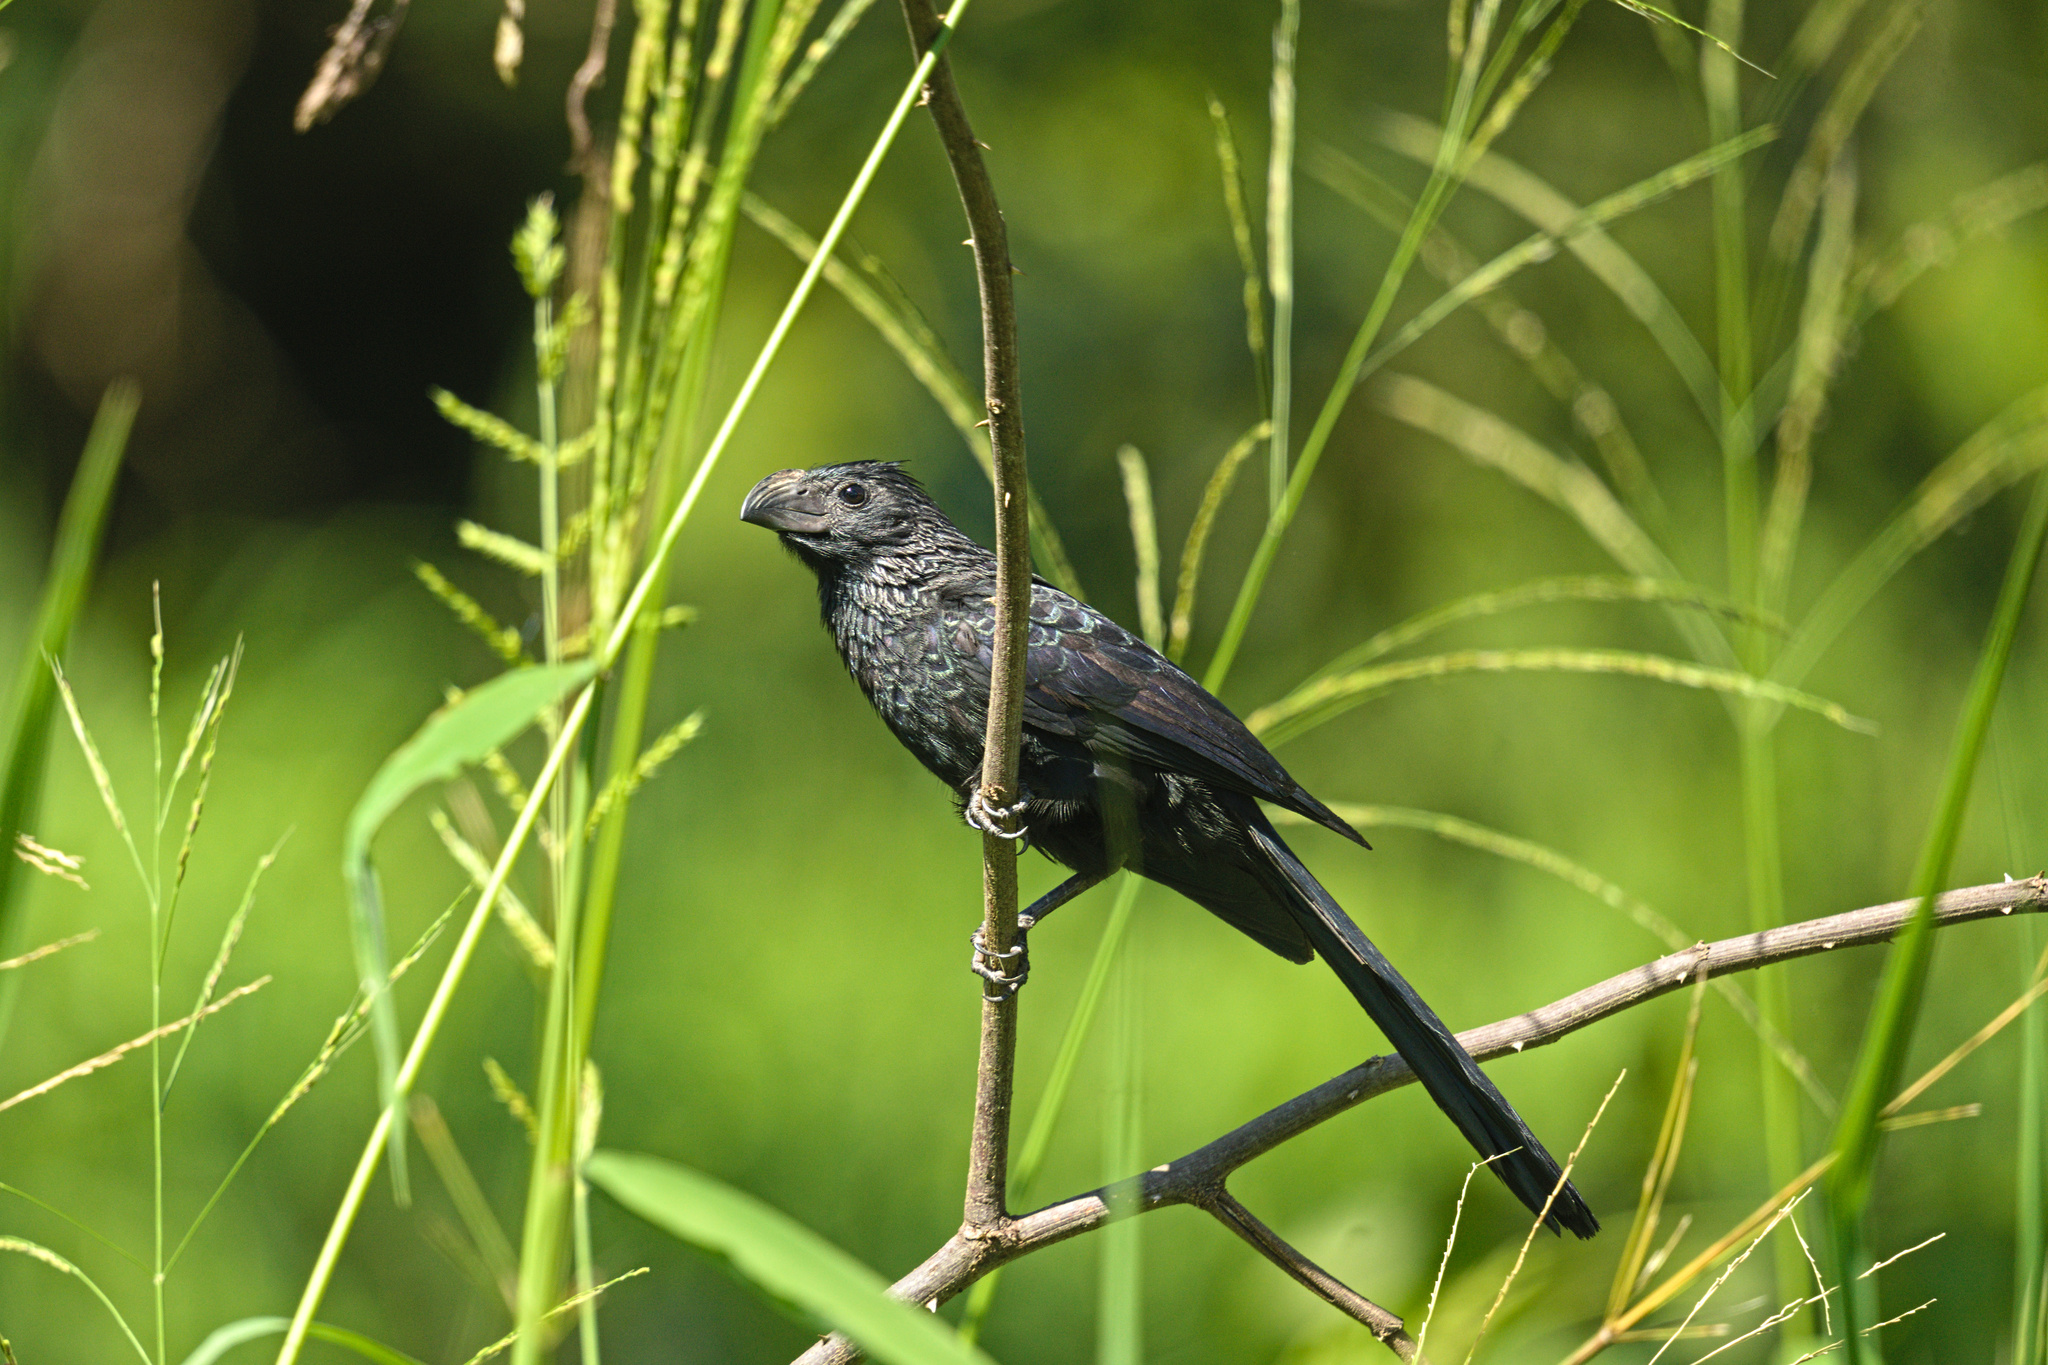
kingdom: Animalia
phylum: Chordata
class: Aves
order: Cuculiformes
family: Cuculidae
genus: Crotophaga
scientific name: Crotophaga sulcirostris
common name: Groove-billed ani
